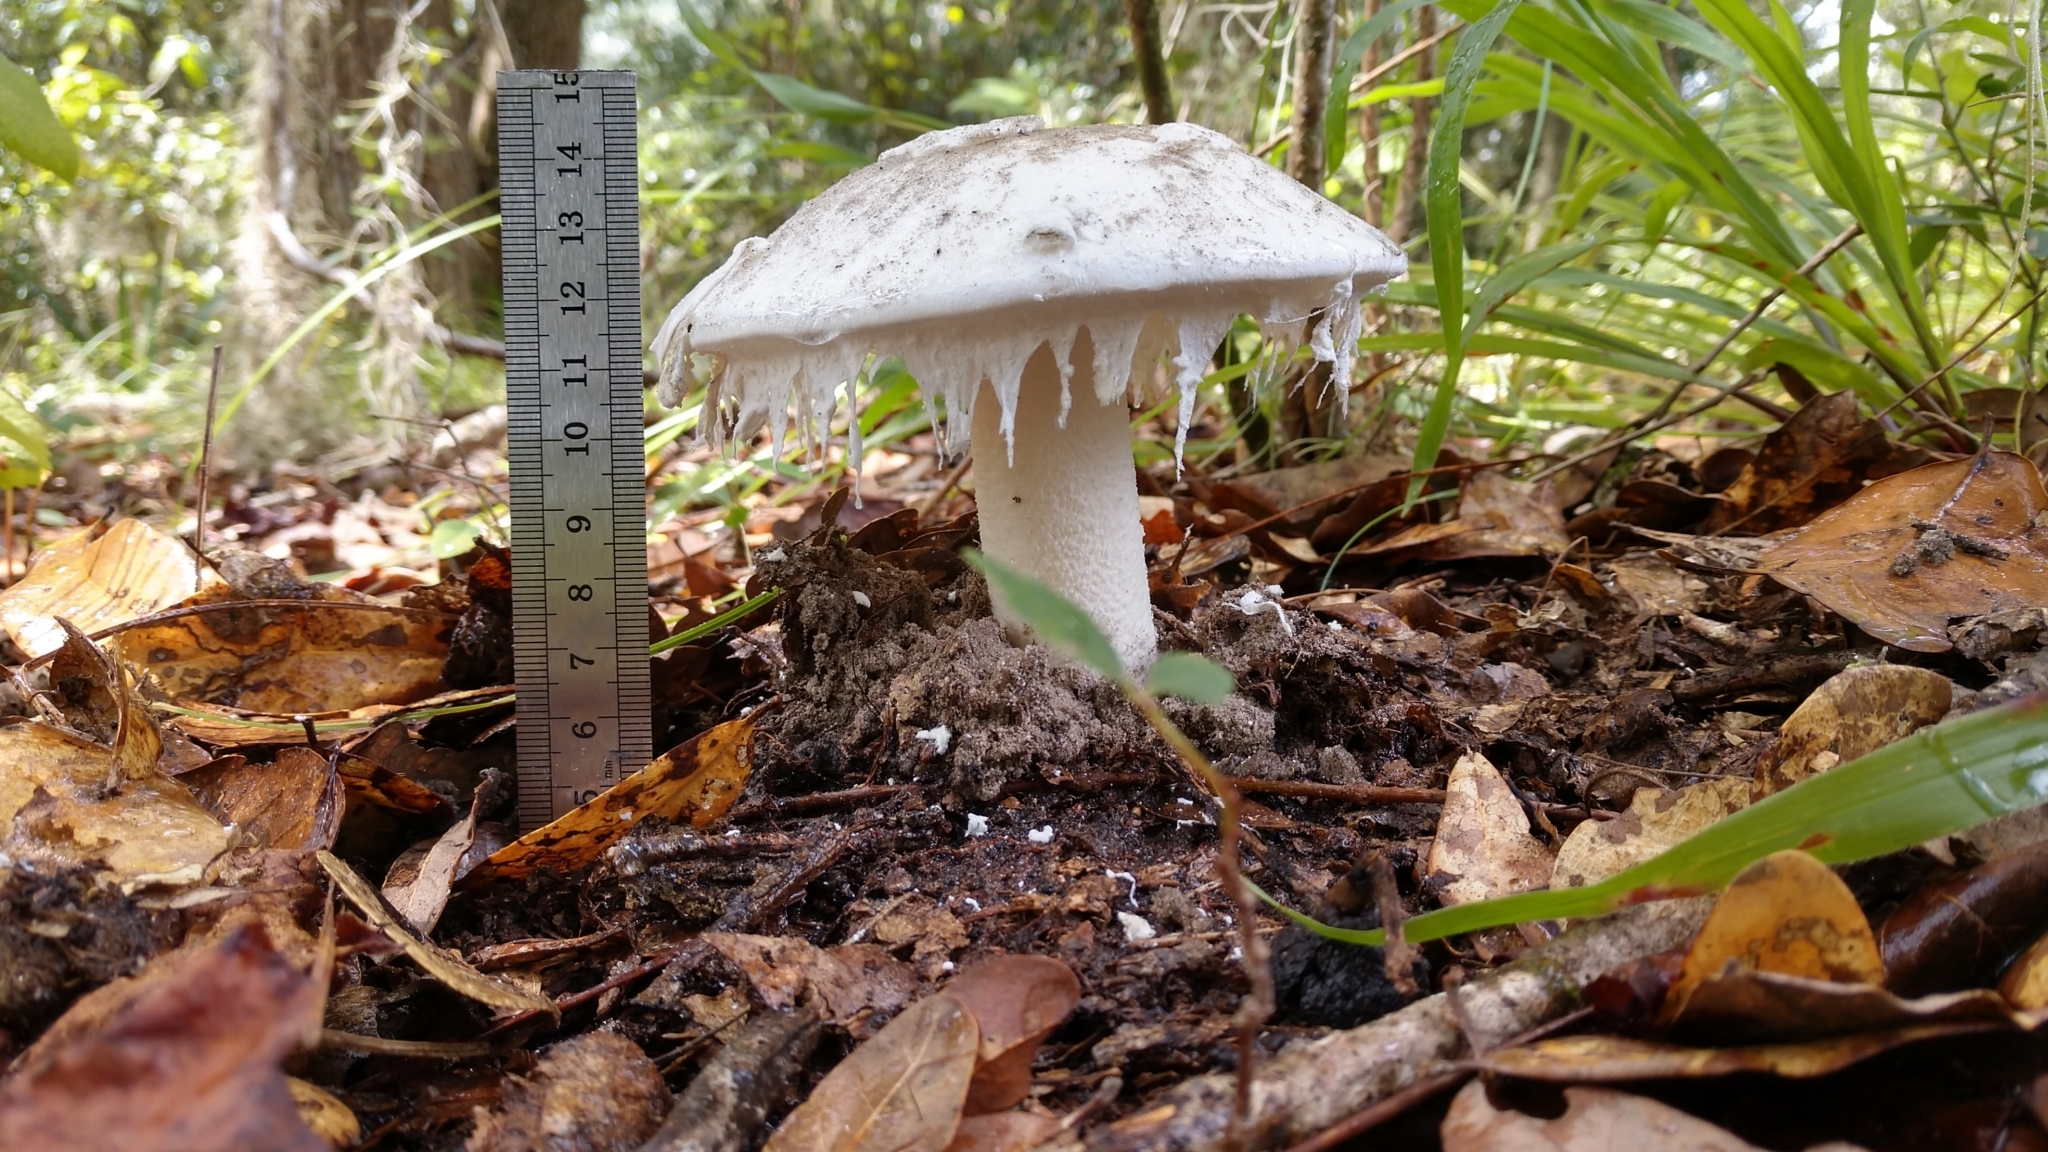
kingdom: Fungi
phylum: Basidiomycota
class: Agaricomycetes
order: Agaricales
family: Amanitaceae
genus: Amanita
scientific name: Amanita cylindrispora
